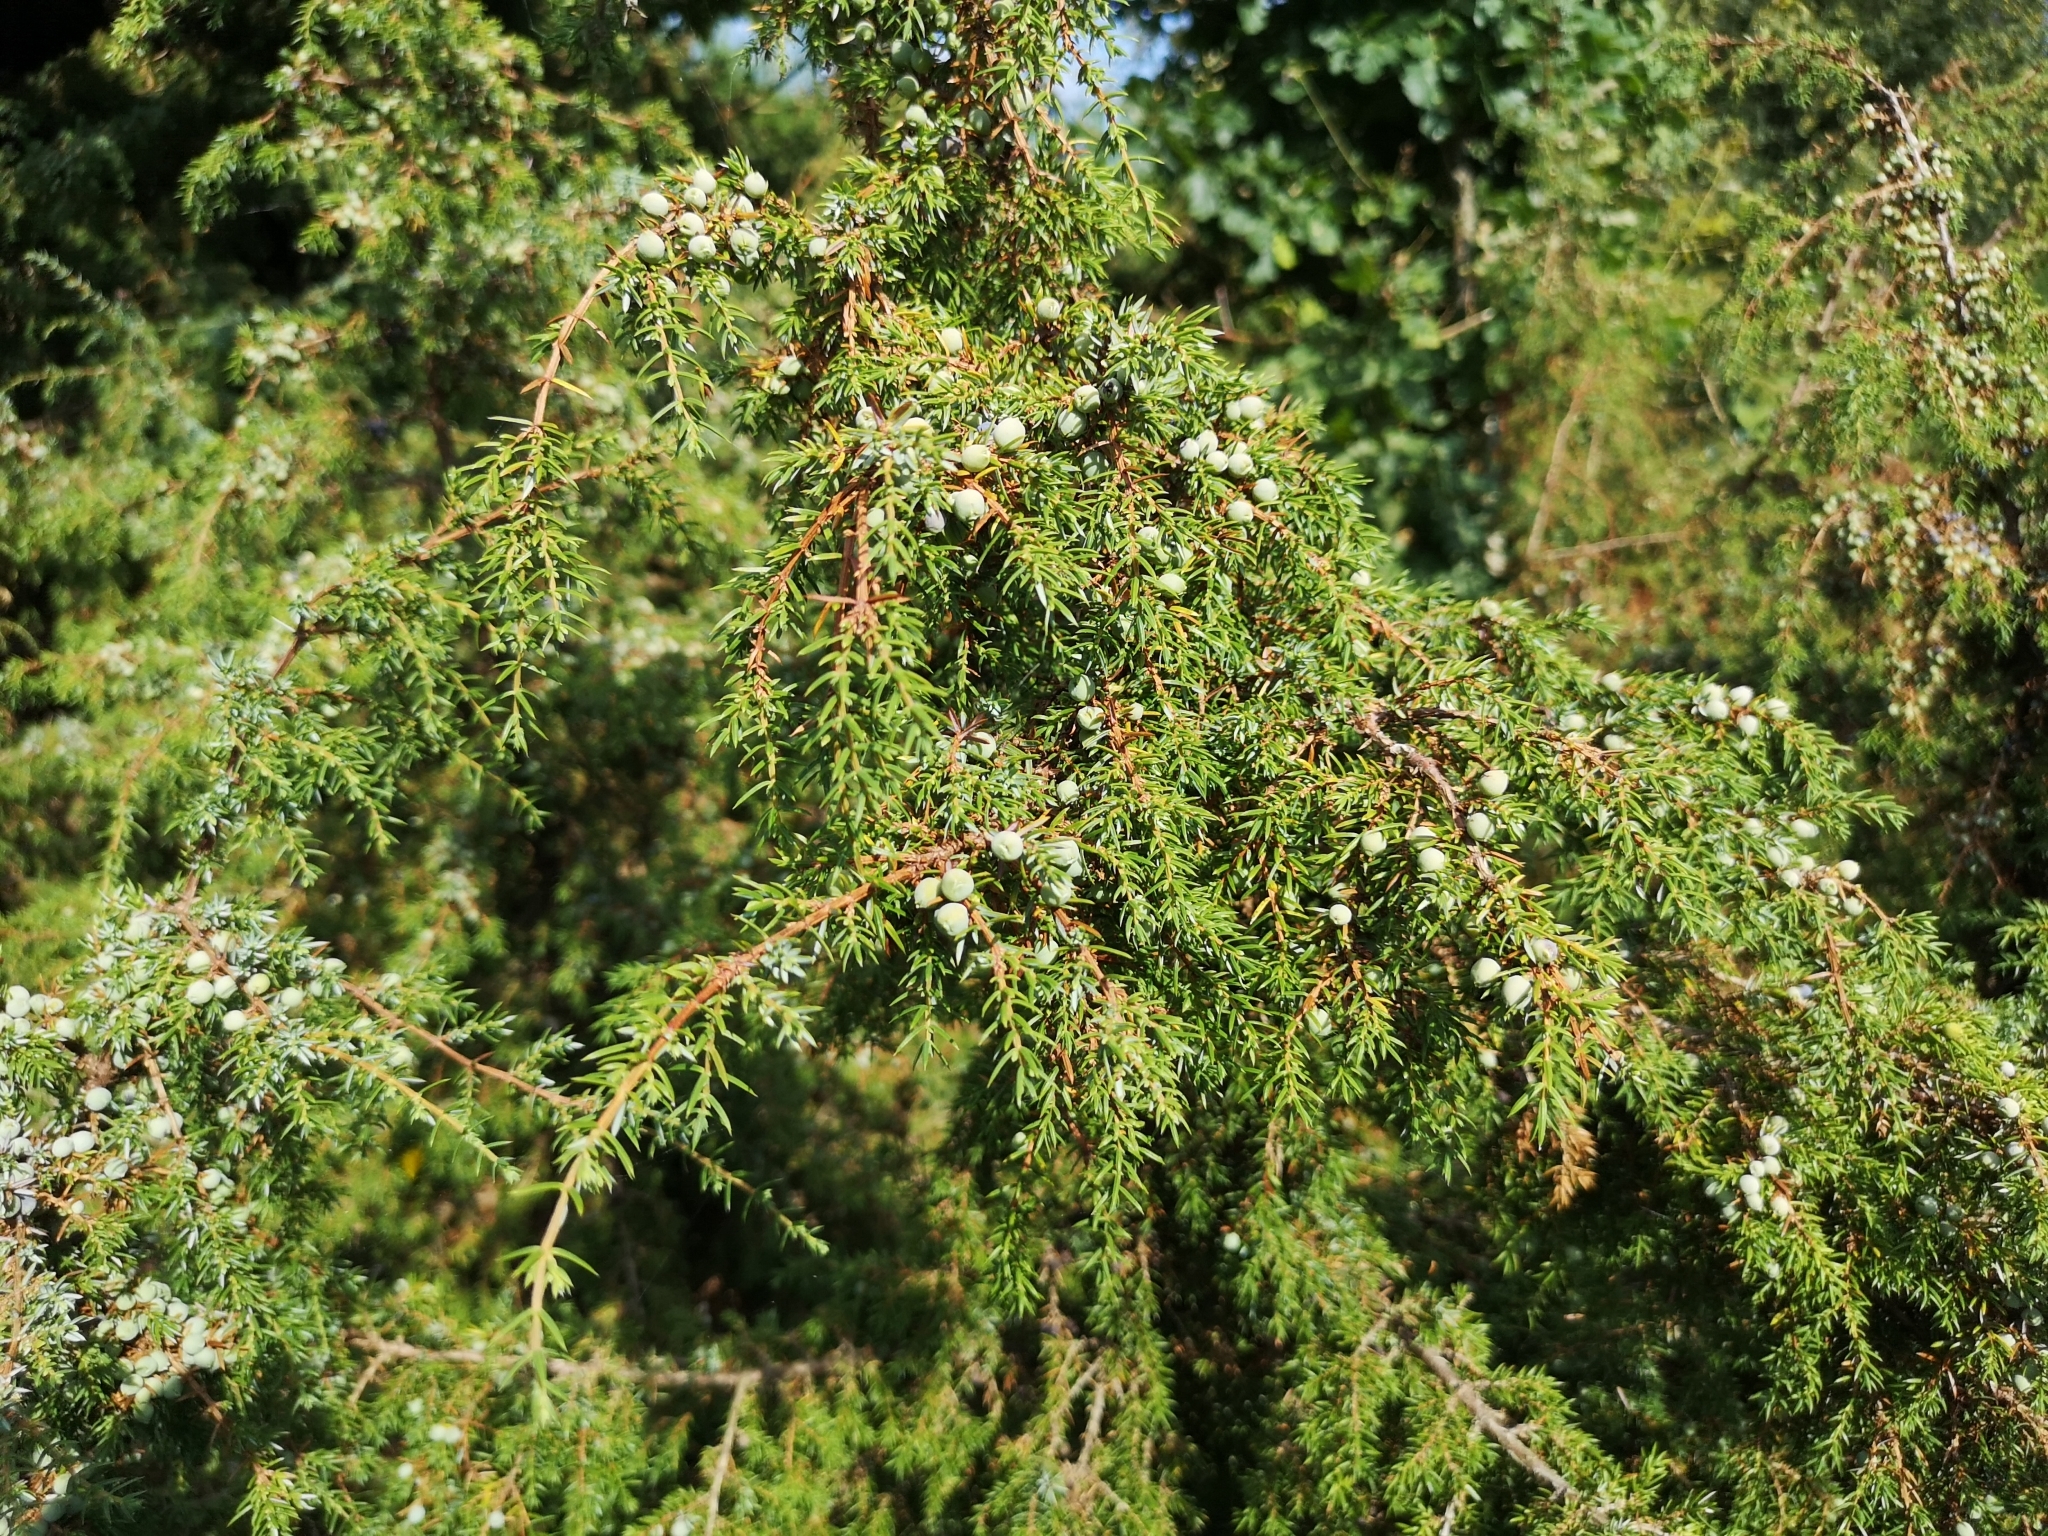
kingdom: Plantae
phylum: Tracheophyta
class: Pinopsida
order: Pinales
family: Cupressaceae
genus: Juniperus
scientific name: Juniperus communis
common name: Common juniper
